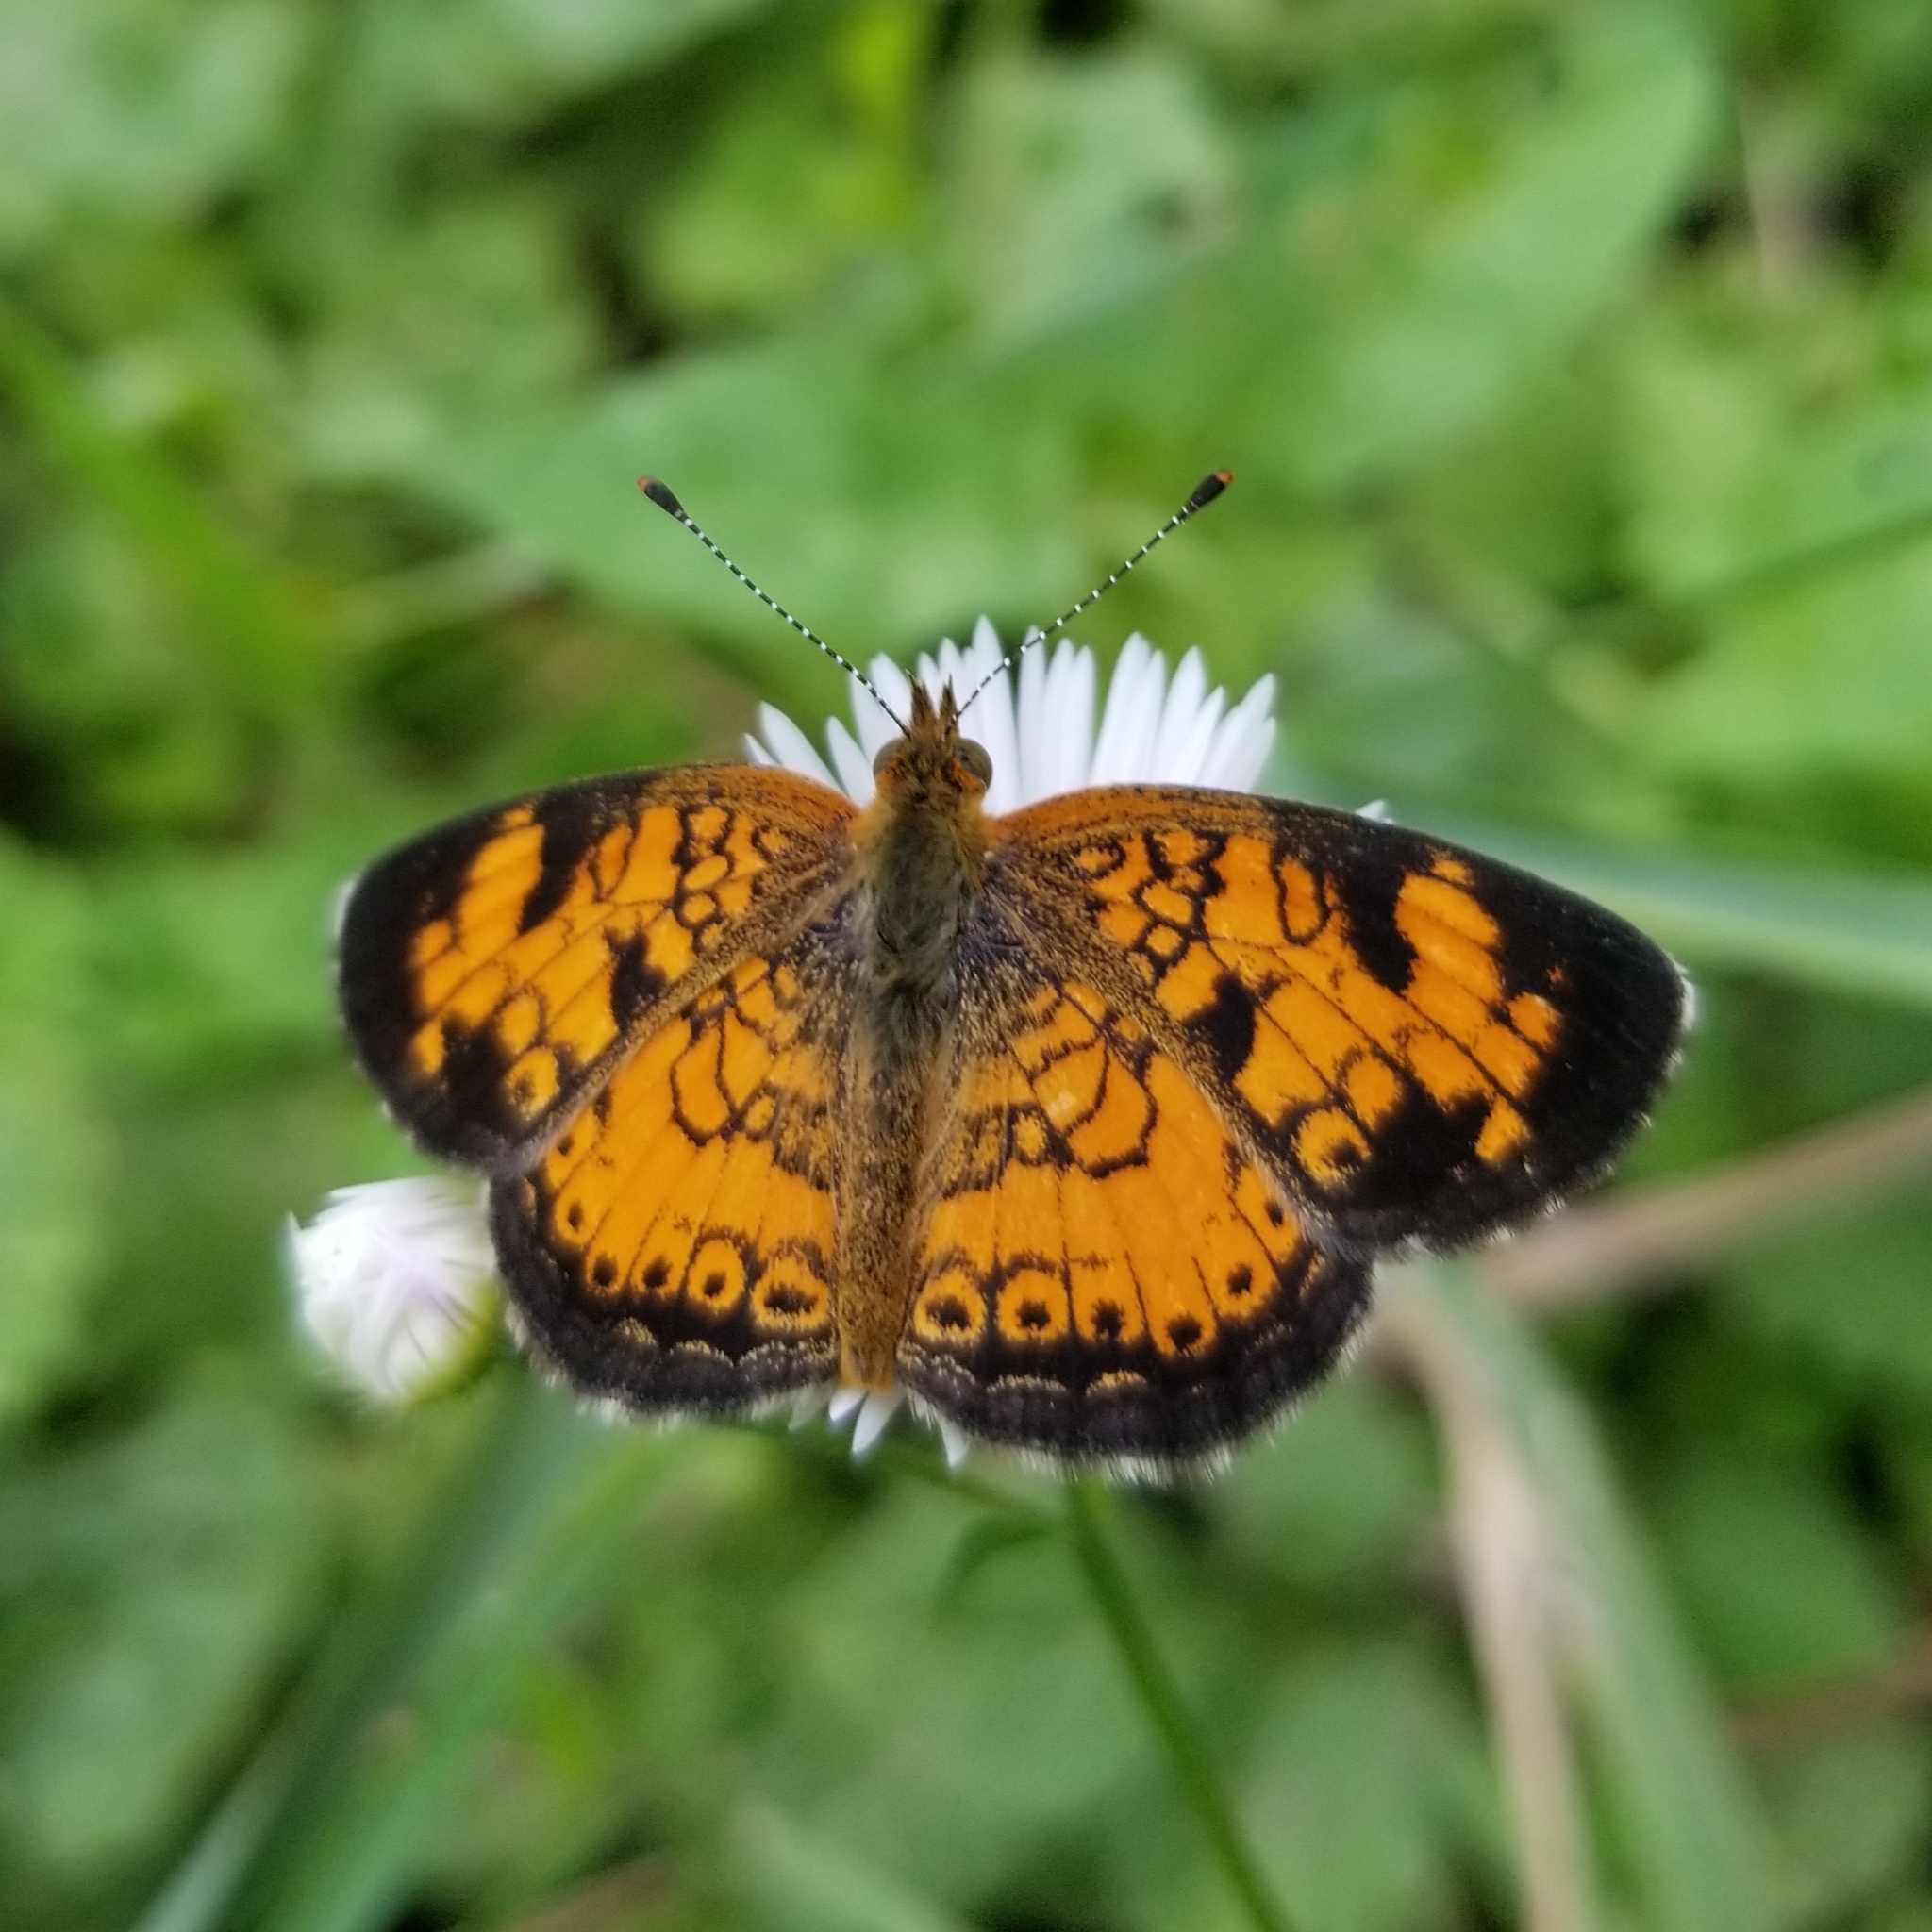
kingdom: Animalia
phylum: Arthropoda
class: Insecta
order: Lepidoptera
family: Nymphalidae
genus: Phyciodes
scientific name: Phyciodes tharos
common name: Pearl crescent
